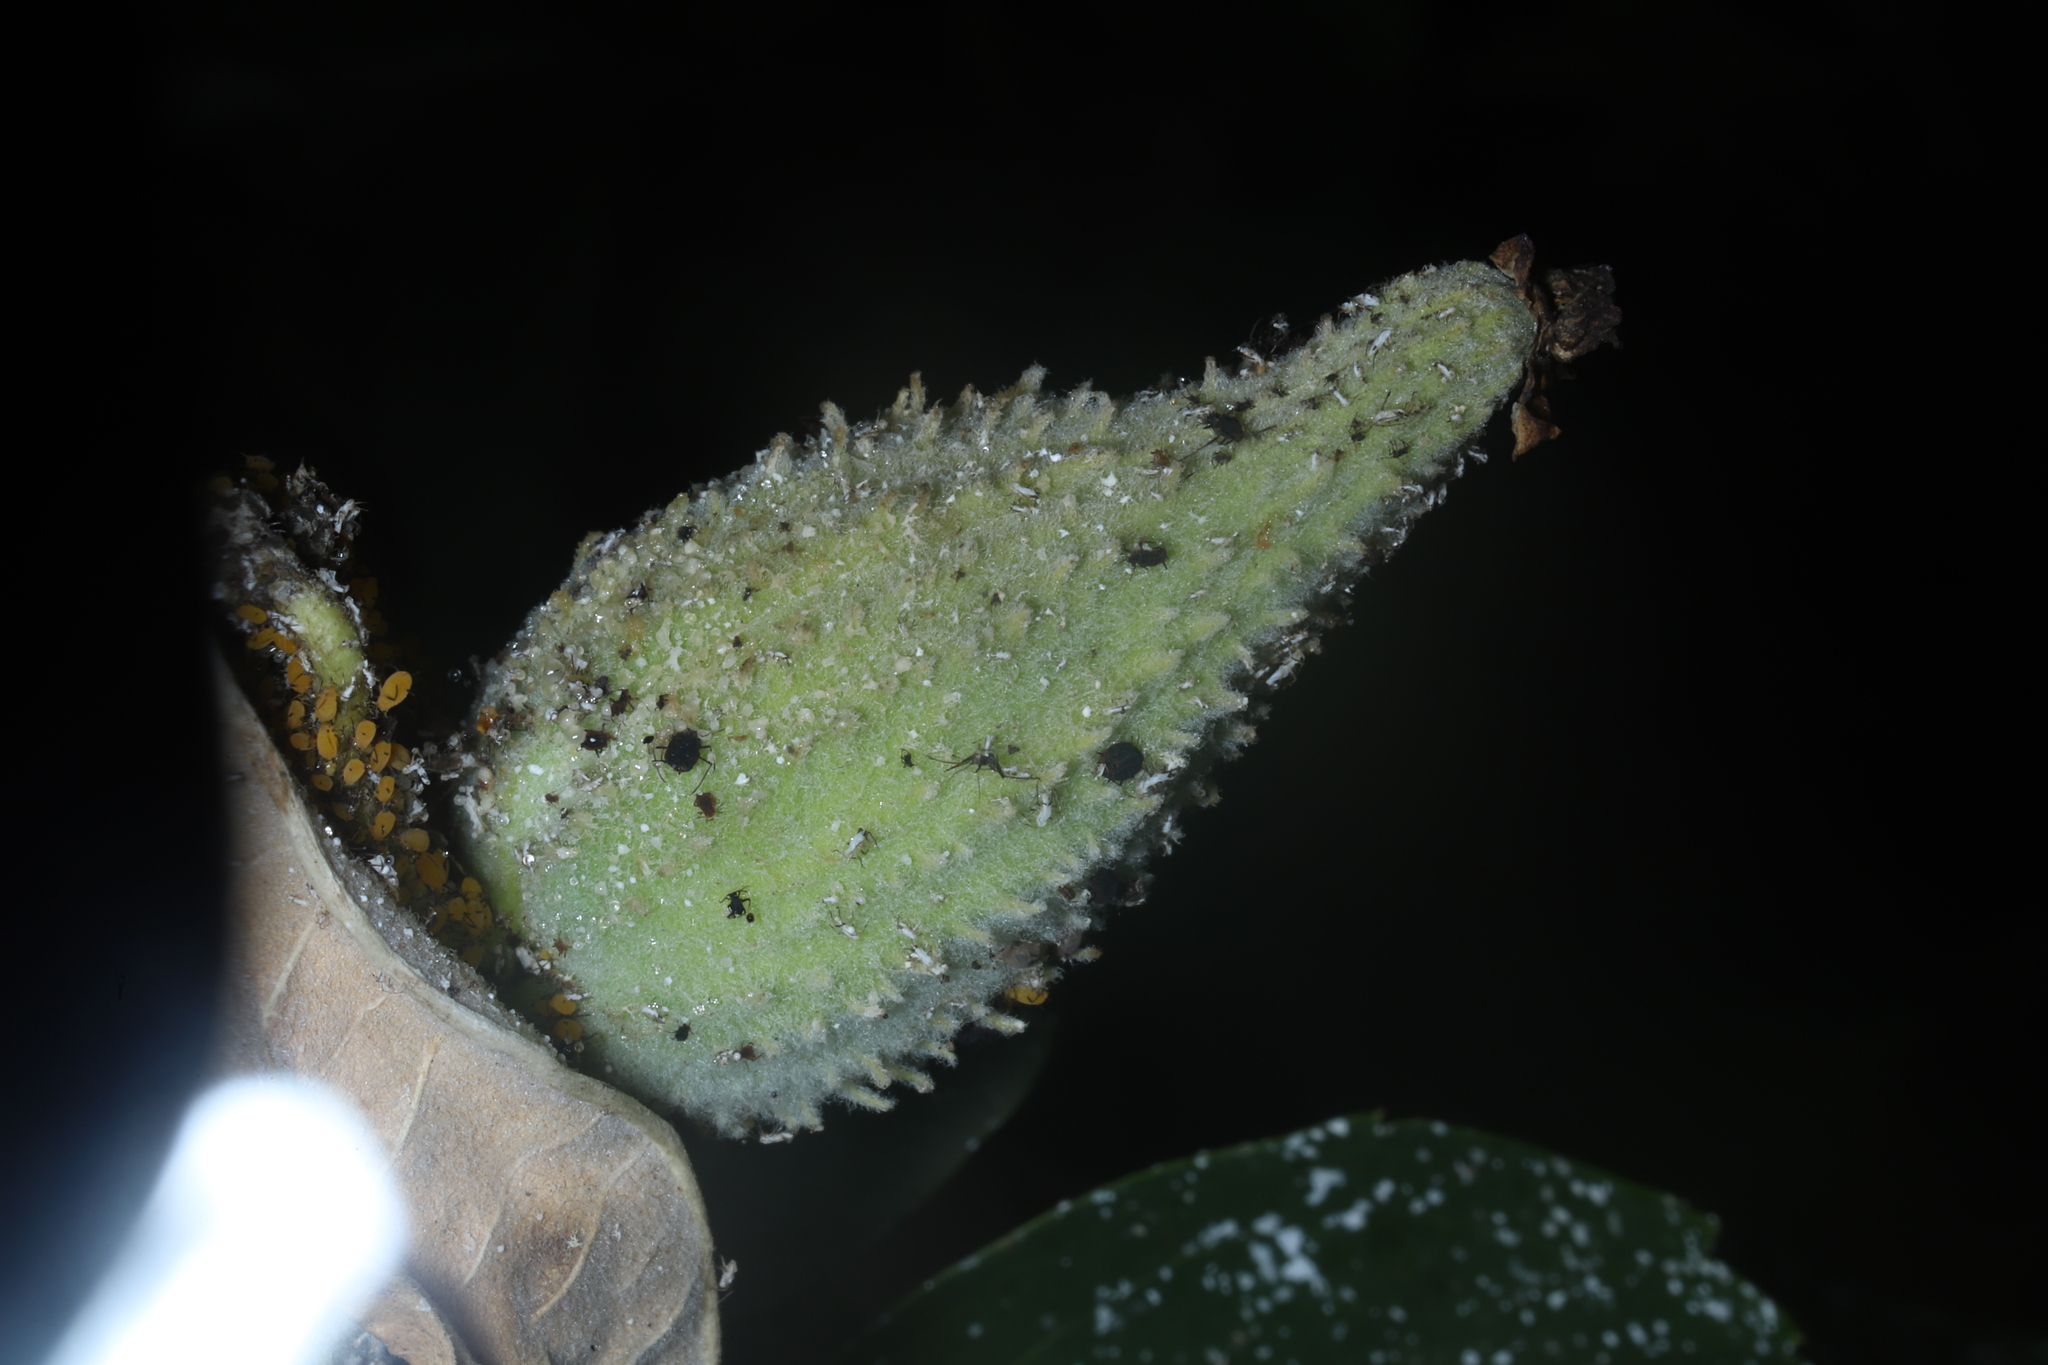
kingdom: Plantae
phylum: Tracheophyta
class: Magnoliopsida
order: Gentianales
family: Apocynaceae
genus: Asclepias
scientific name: Asclepias syriaca
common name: Common milkweed
